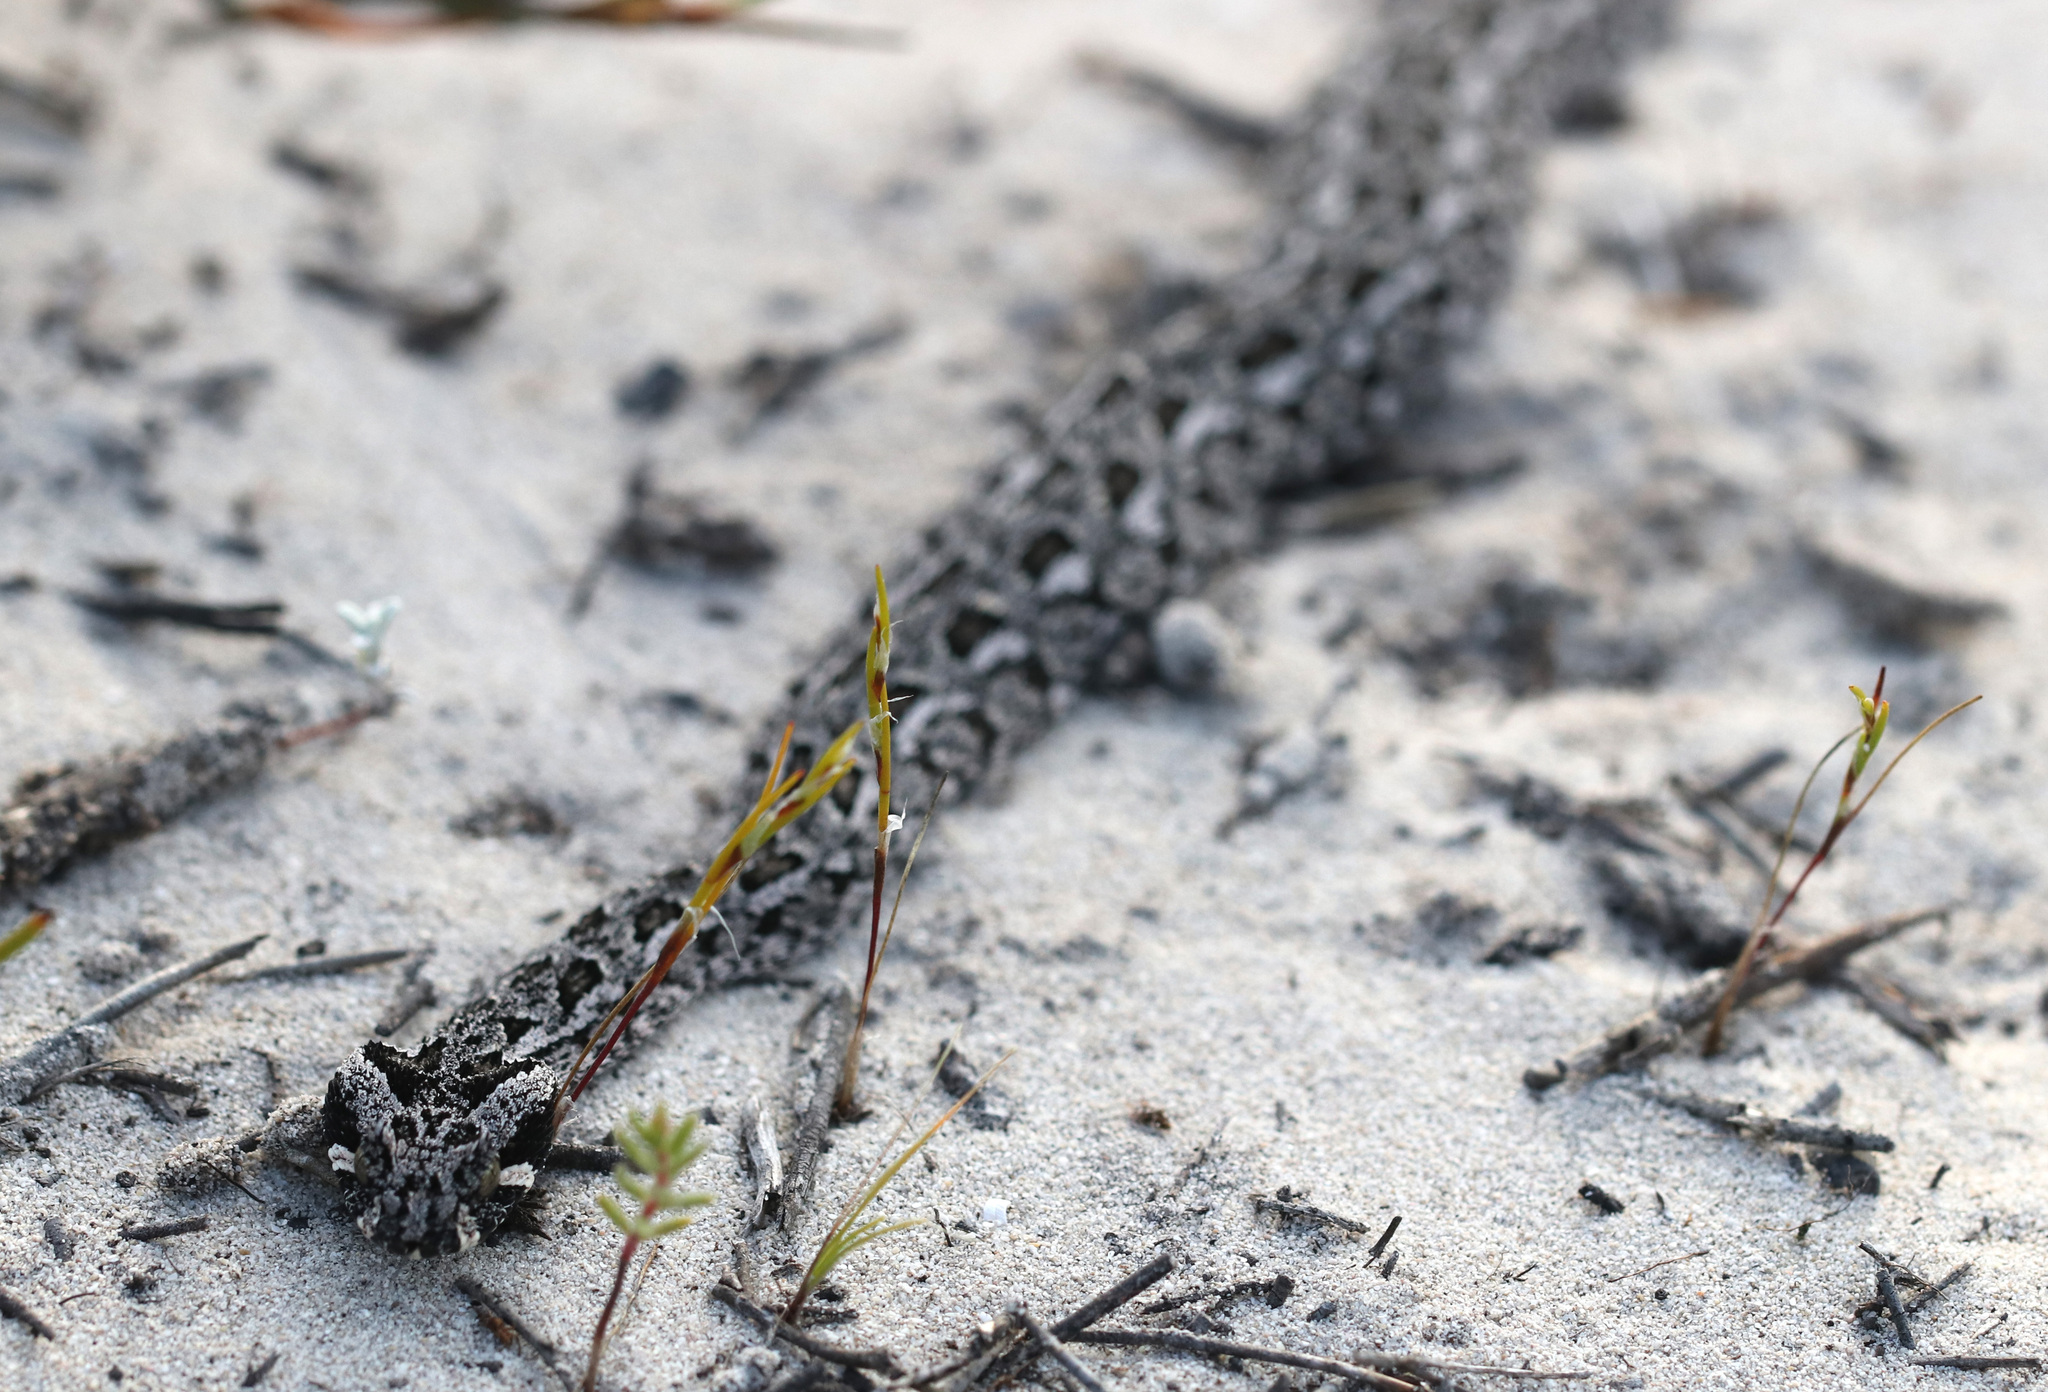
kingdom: Animalia
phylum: Chordata
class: Squamata
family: Viperidae
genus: Bitis
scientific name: Bitis armata
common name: Southern adder
